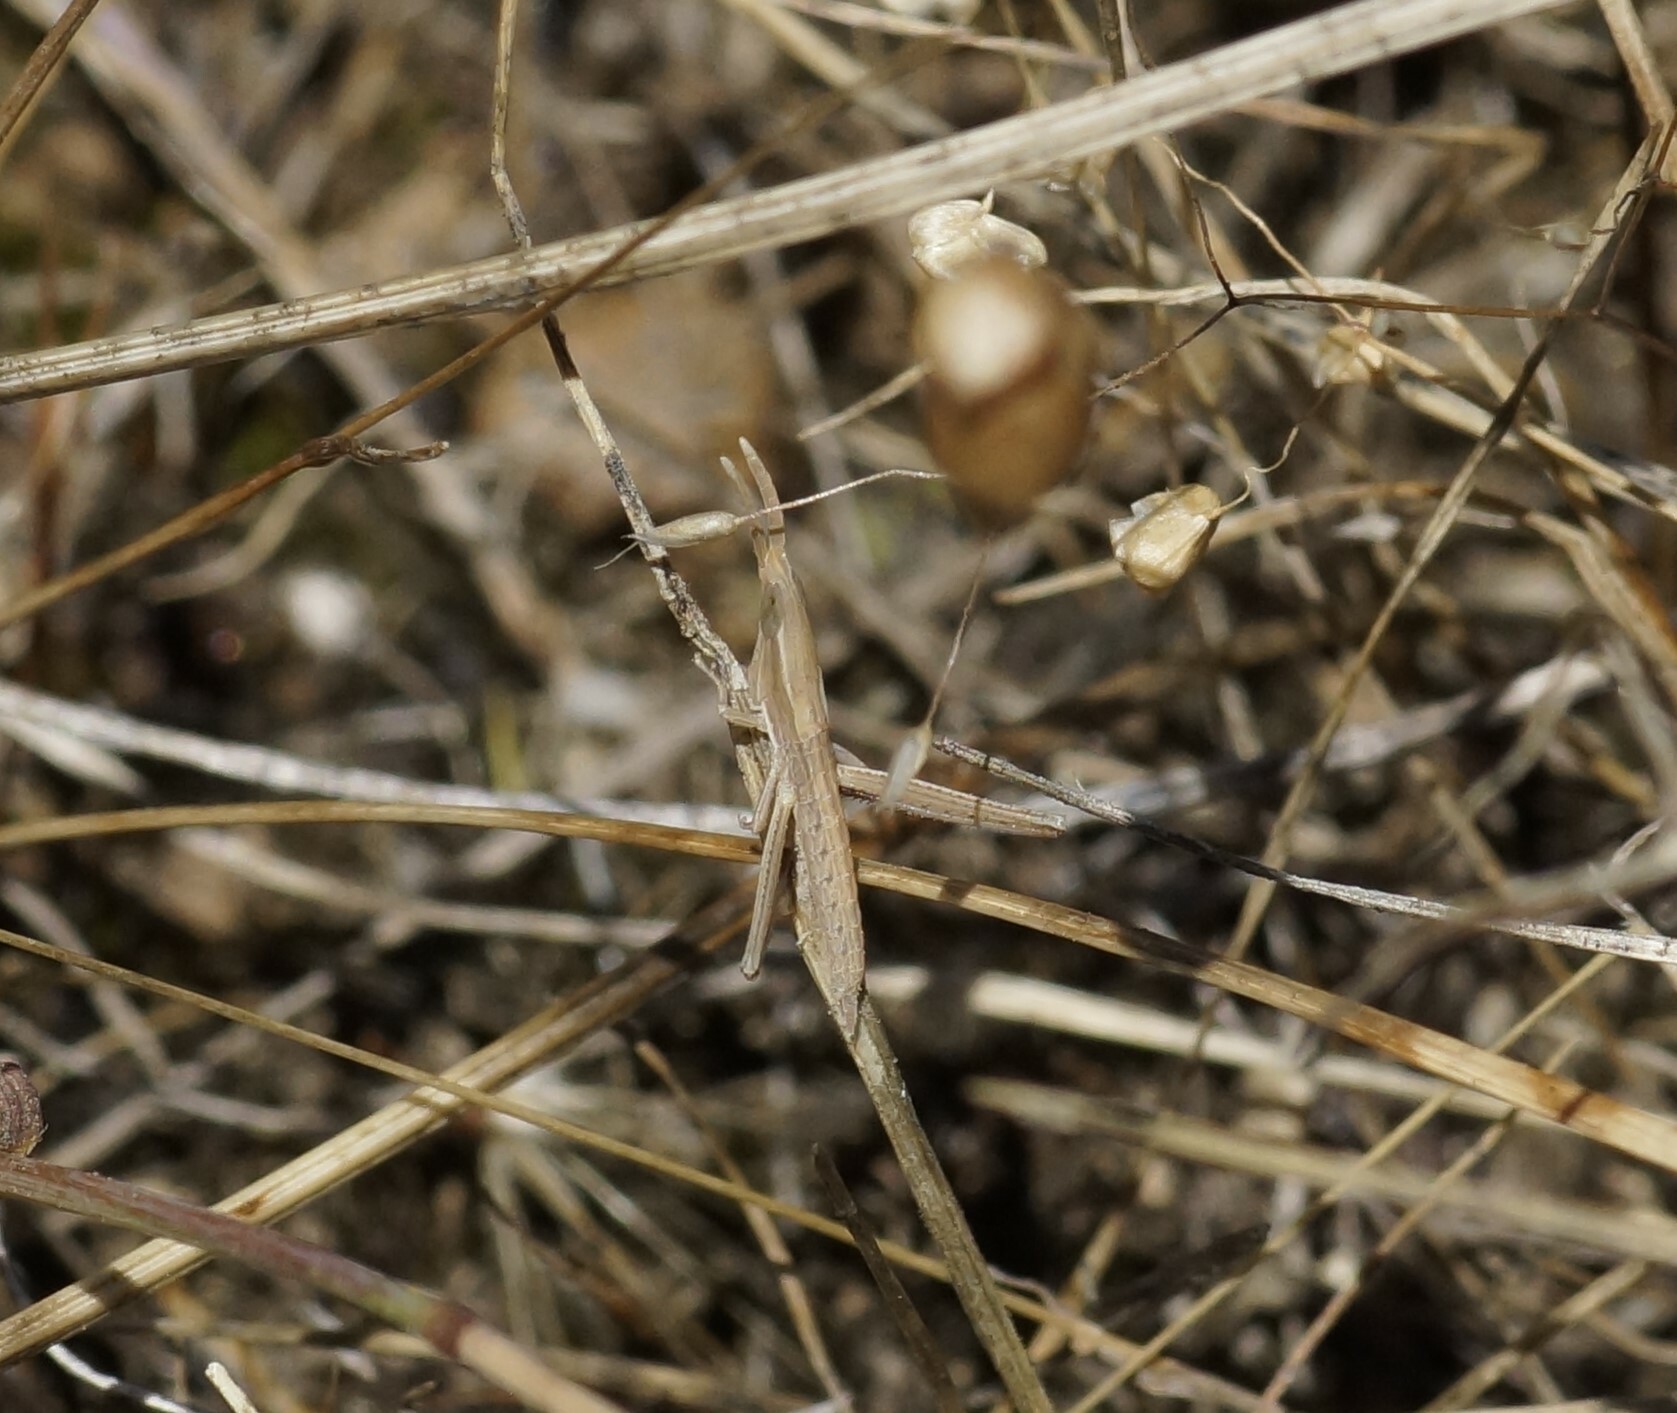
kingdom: Animalia
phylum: Arthropoda
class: Insecta
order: Orthoptera
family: Acrididae
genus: Acrida
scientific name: Acrida conica
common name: Giant green slantface
